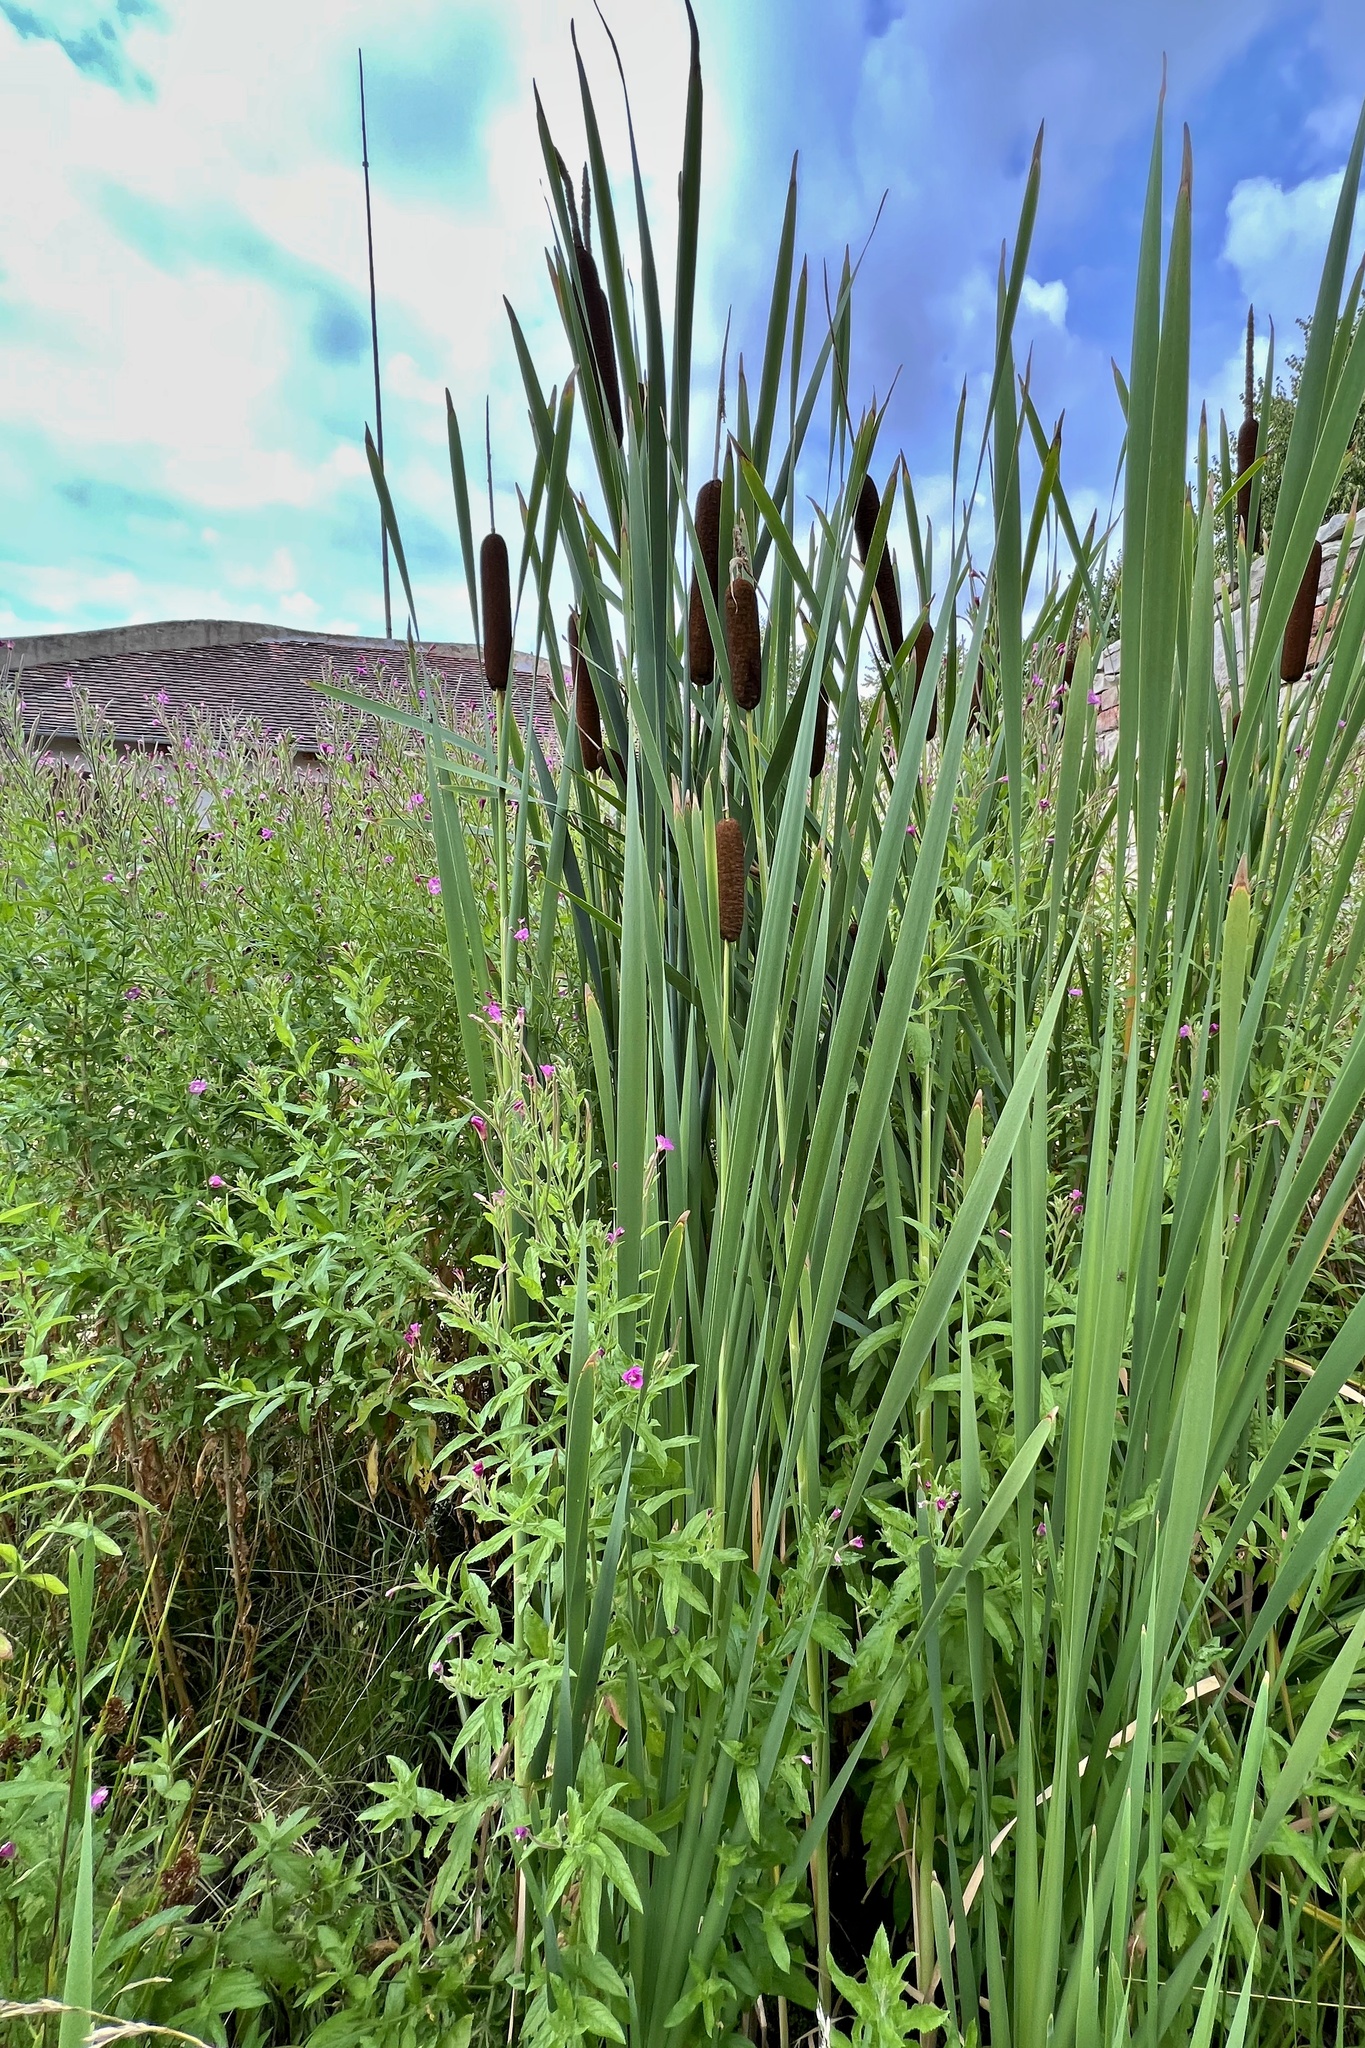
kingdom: Plantae
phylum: Tracheophyta
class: Liliopsida
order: Poales
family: Typhaceae
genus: Typha
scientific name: Typha latifolia
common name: Broadleaf cattail
